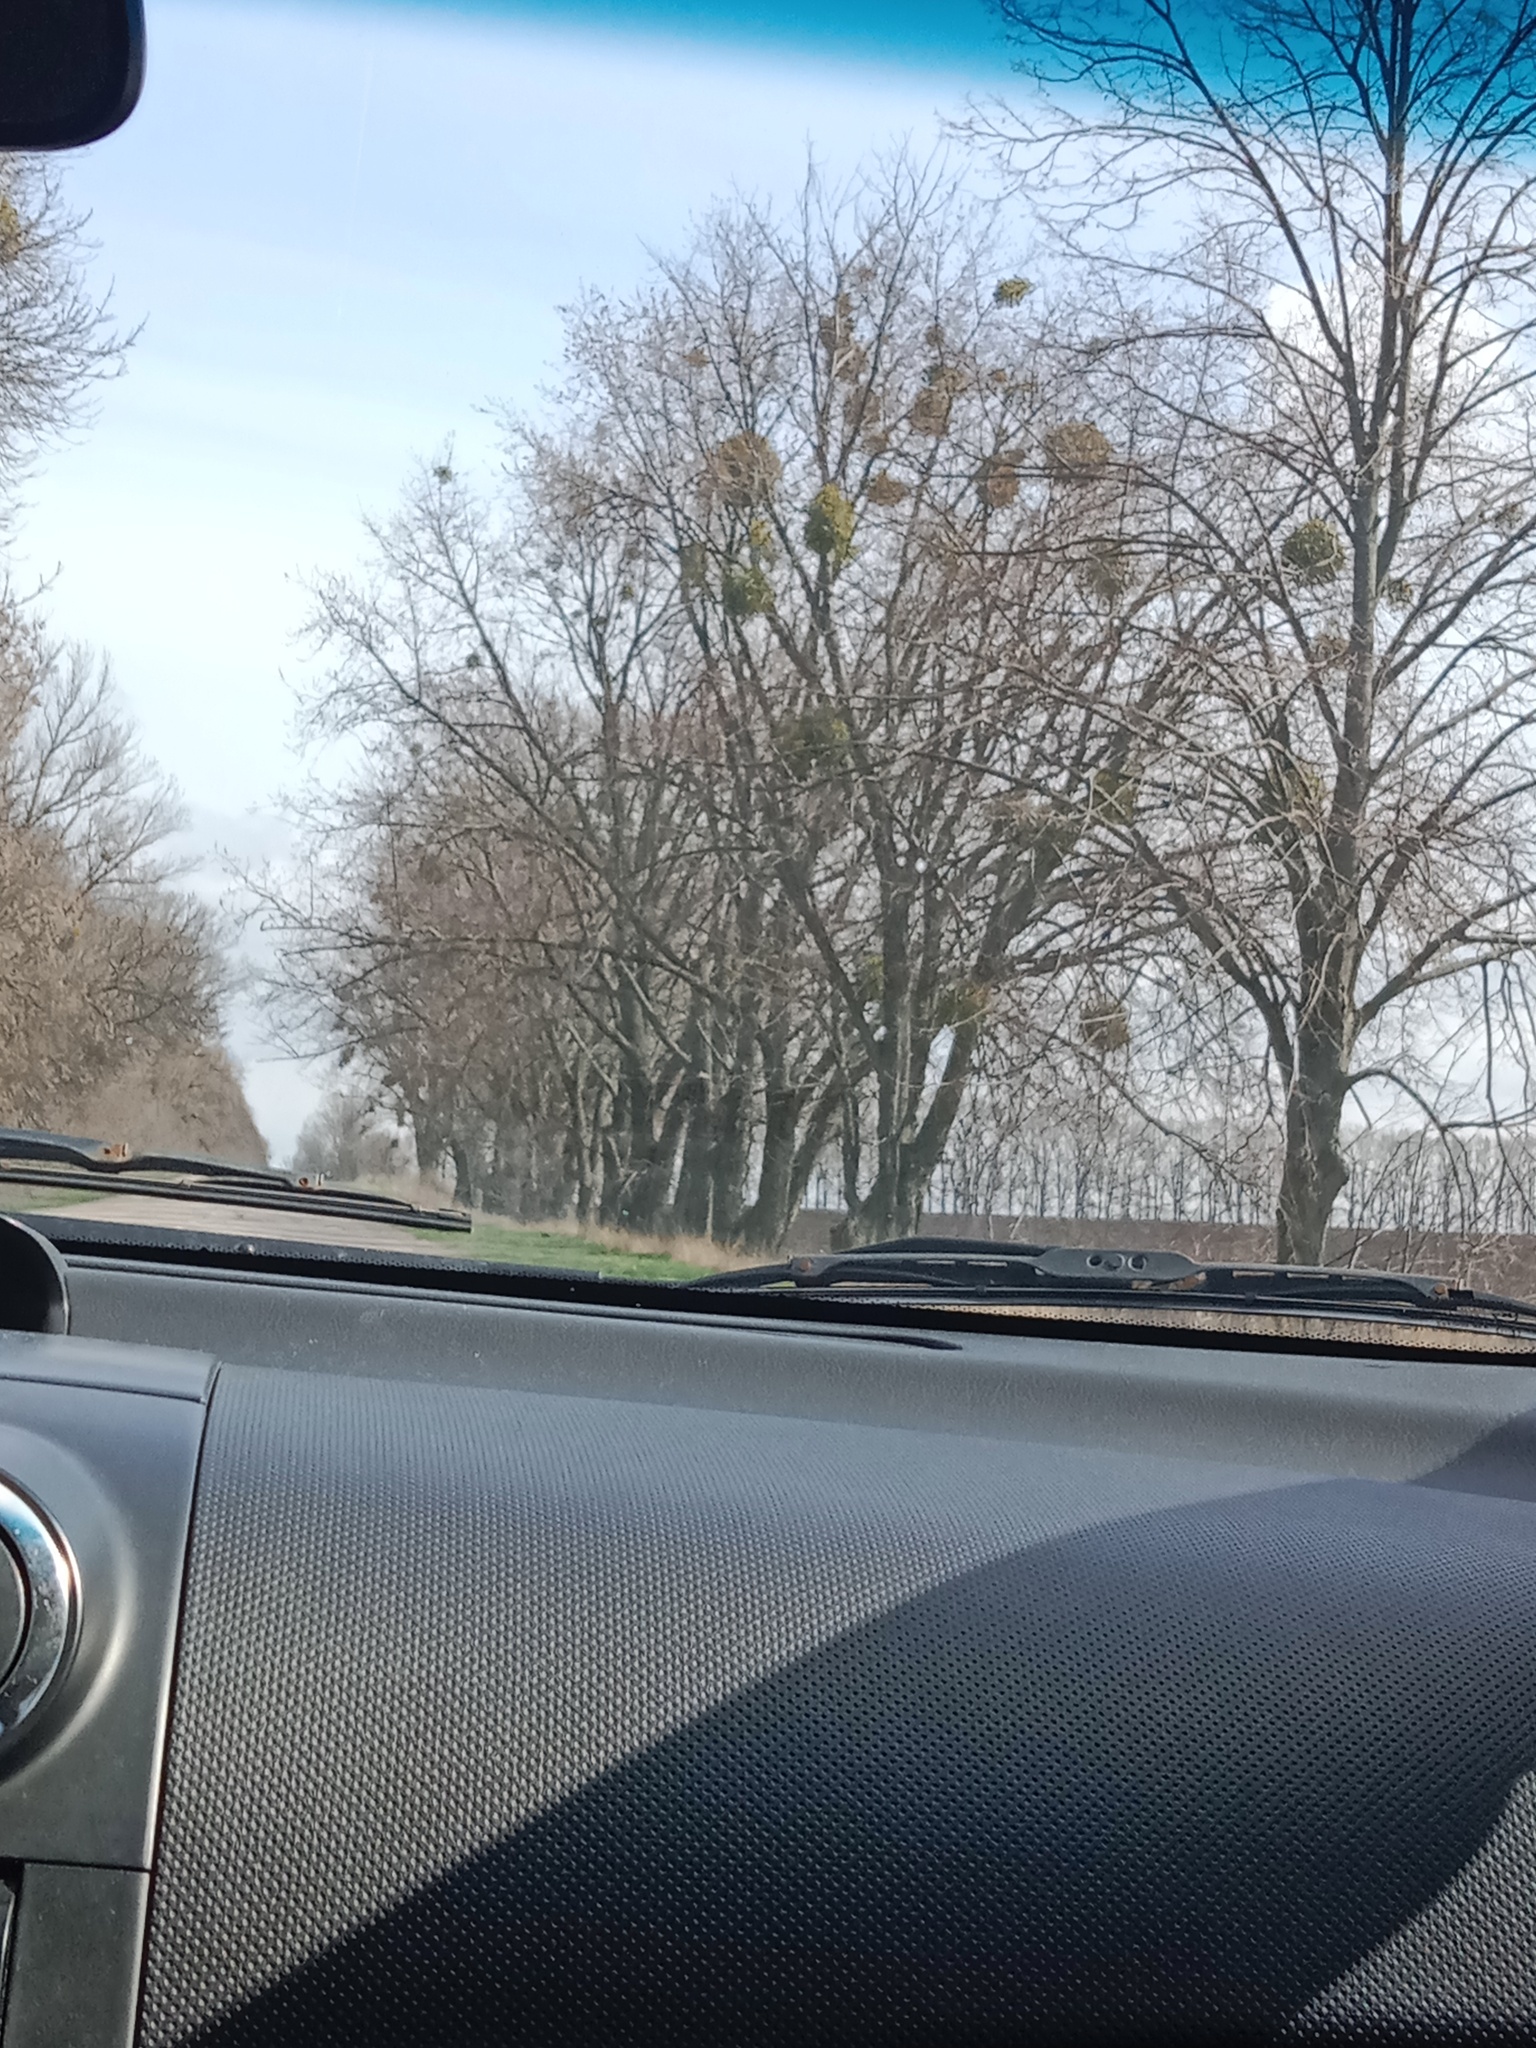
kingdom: Plantae
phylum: Tracheophyta
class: Magnoliopsida
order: Santalales
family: Viscaceae
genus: Viscum
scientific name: Viscum album
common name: Mistletoe
